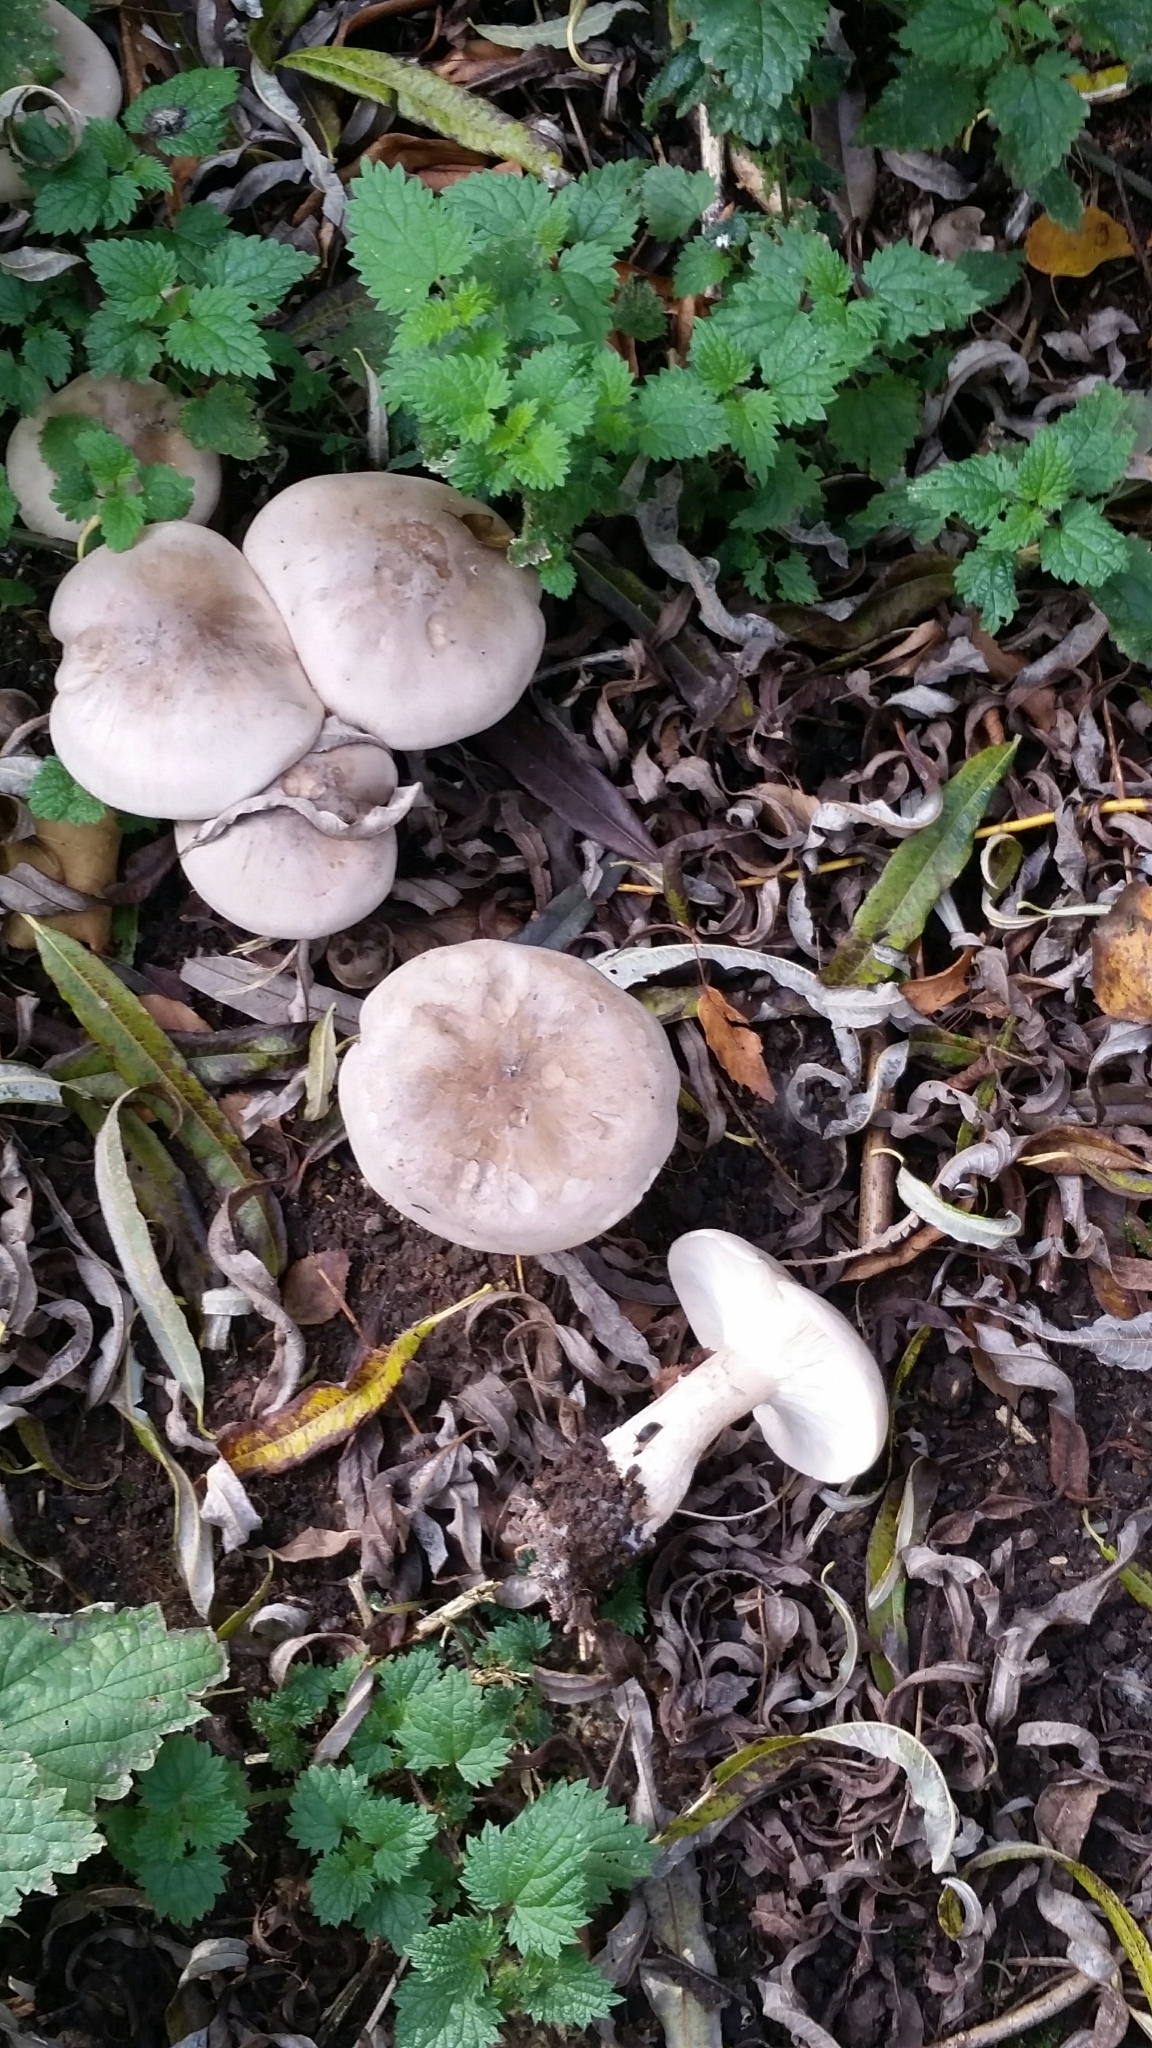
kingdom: Fungi
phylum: Basidiomycota
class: Agaricomycetes
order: Agaricales
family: Tricholomataceae
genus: Clitocybe
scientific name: Clitocybe nebularis
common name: Clouded agaric
